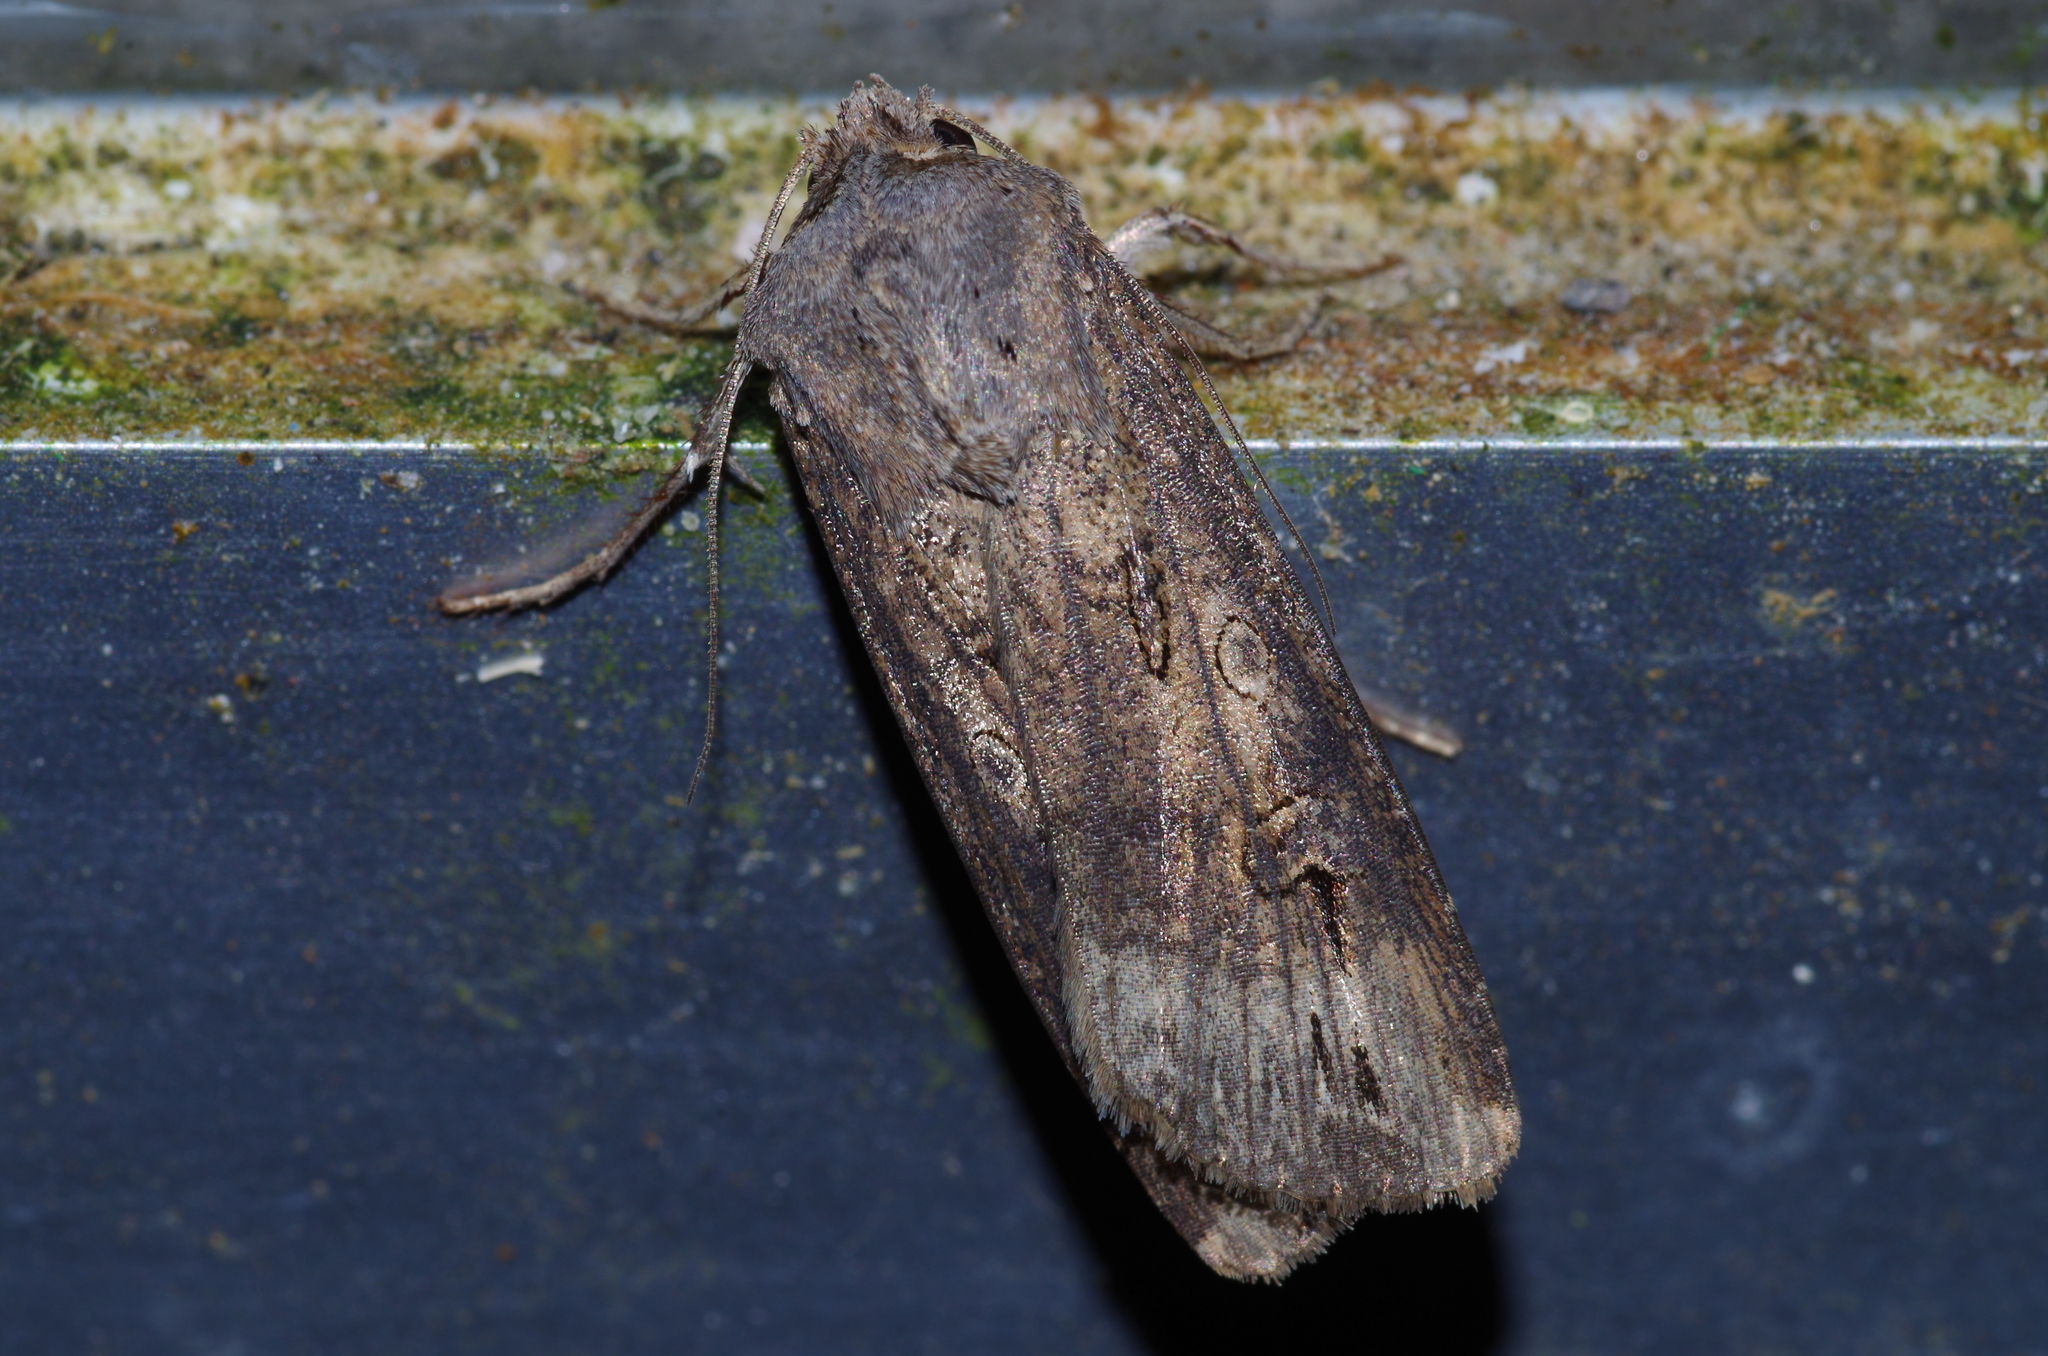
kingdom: Animalia
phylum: Arthropoda
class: Insecta
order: Lepidoptera
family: Noctuidae
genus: Agrotis
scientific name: Agrotis ipsilon
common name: Dark sword-grass
